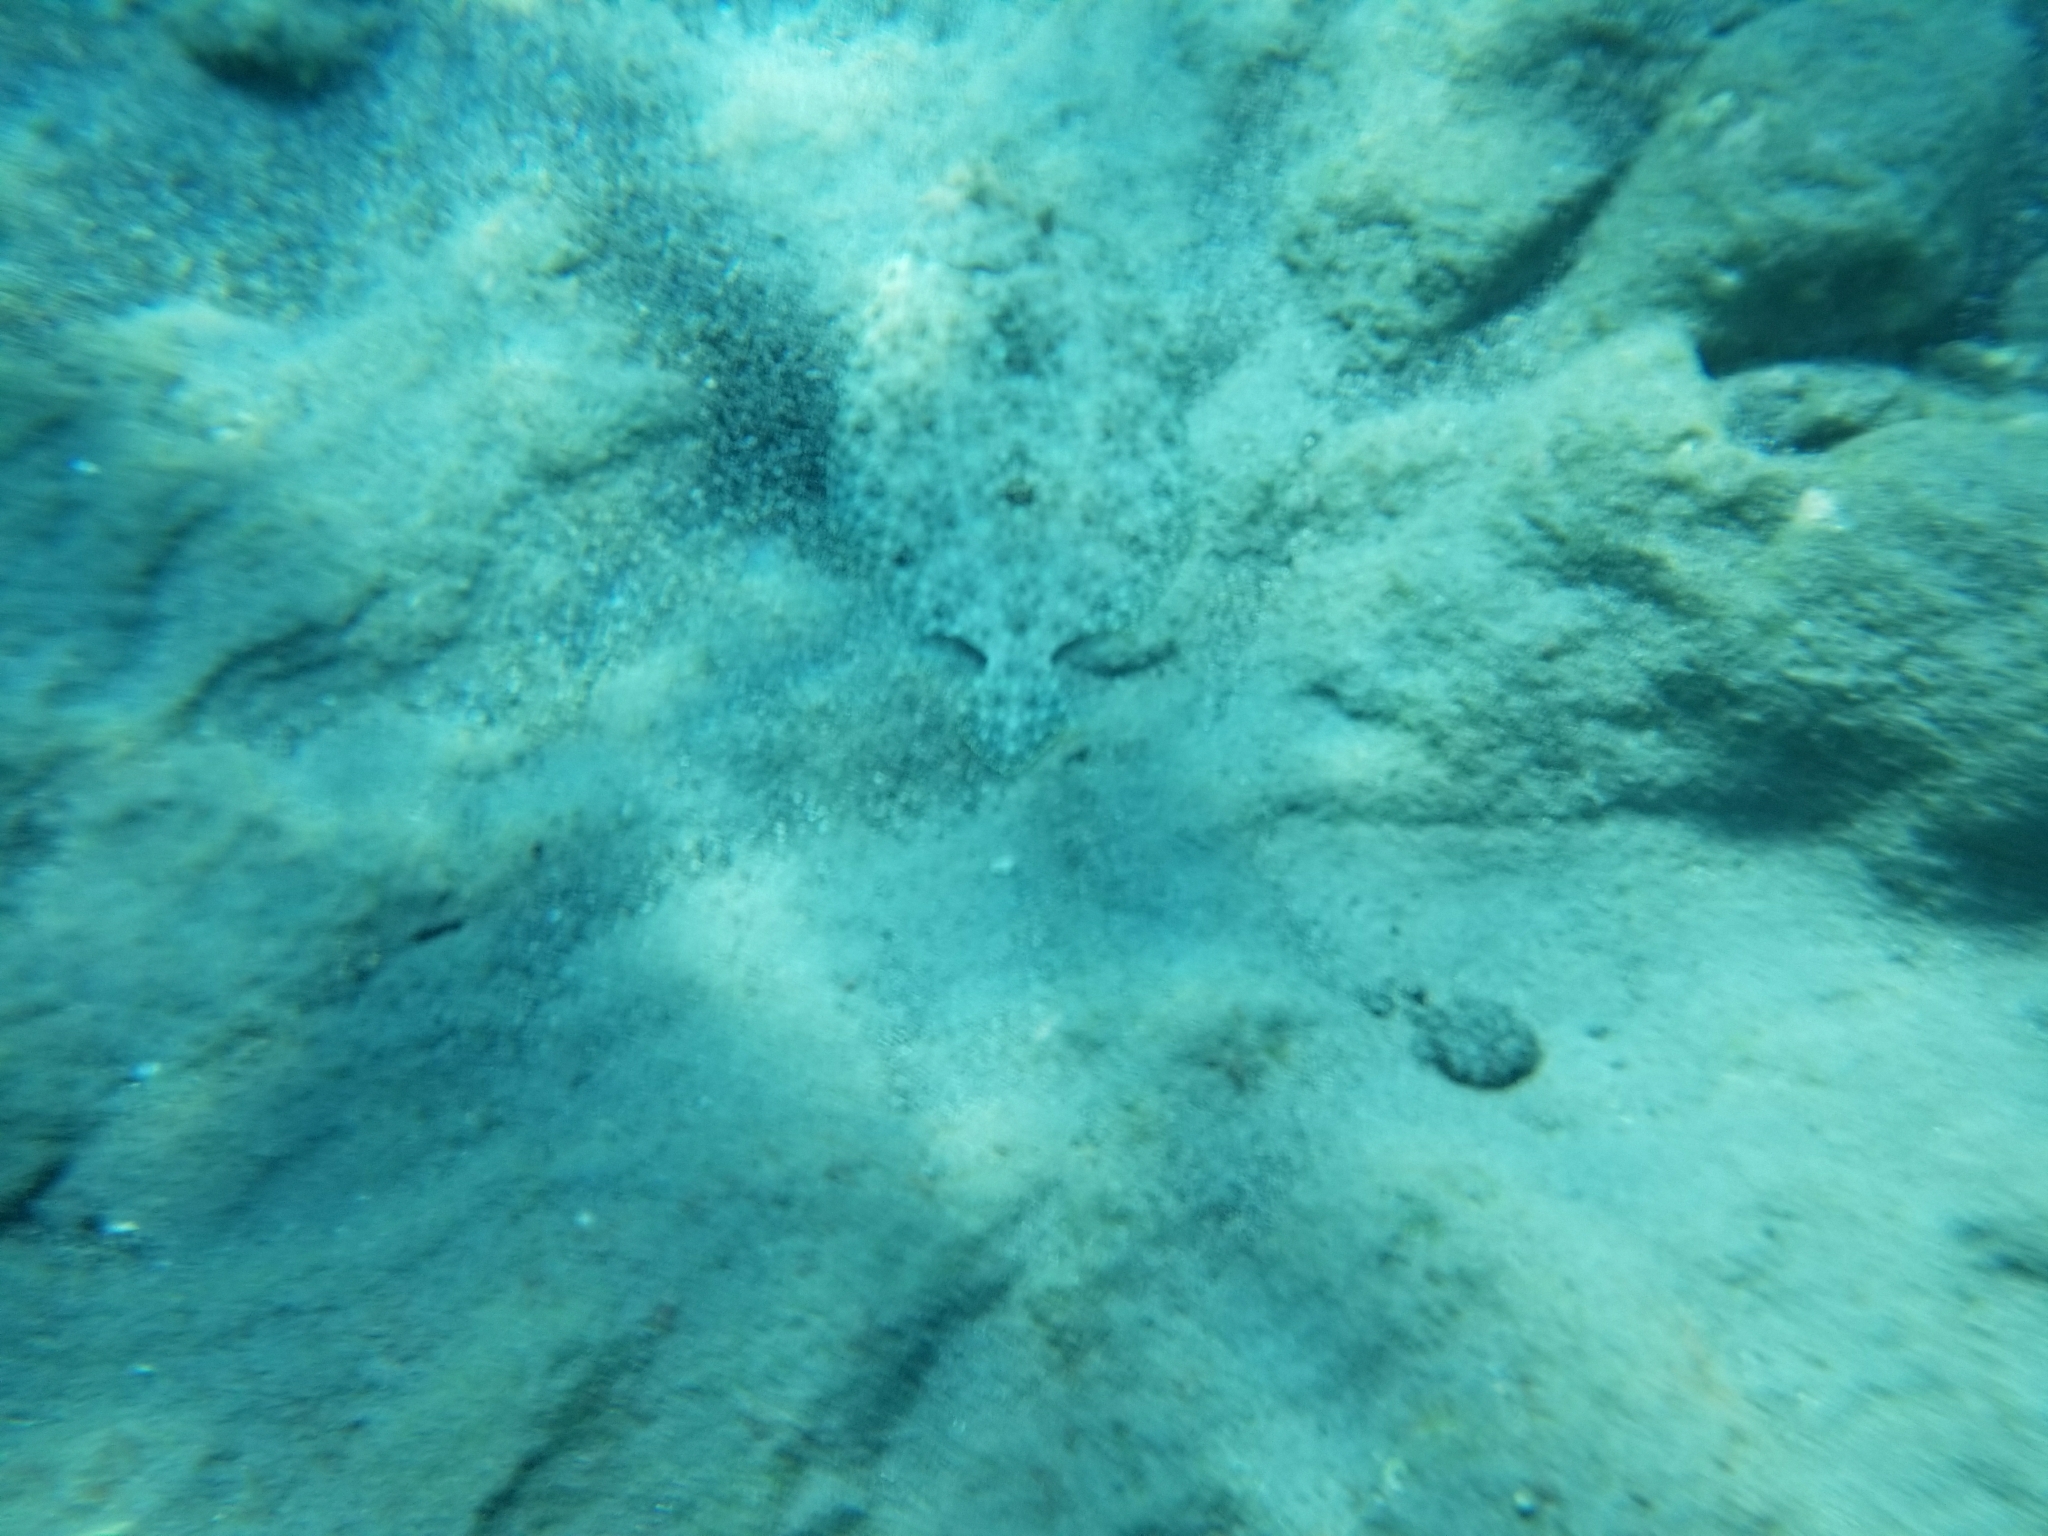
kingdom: Animalia
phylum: Chordata
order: Pleuronectiformes
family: Bothidae
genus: Bothus
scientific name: Bothus mancus
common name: Flowery flounder
